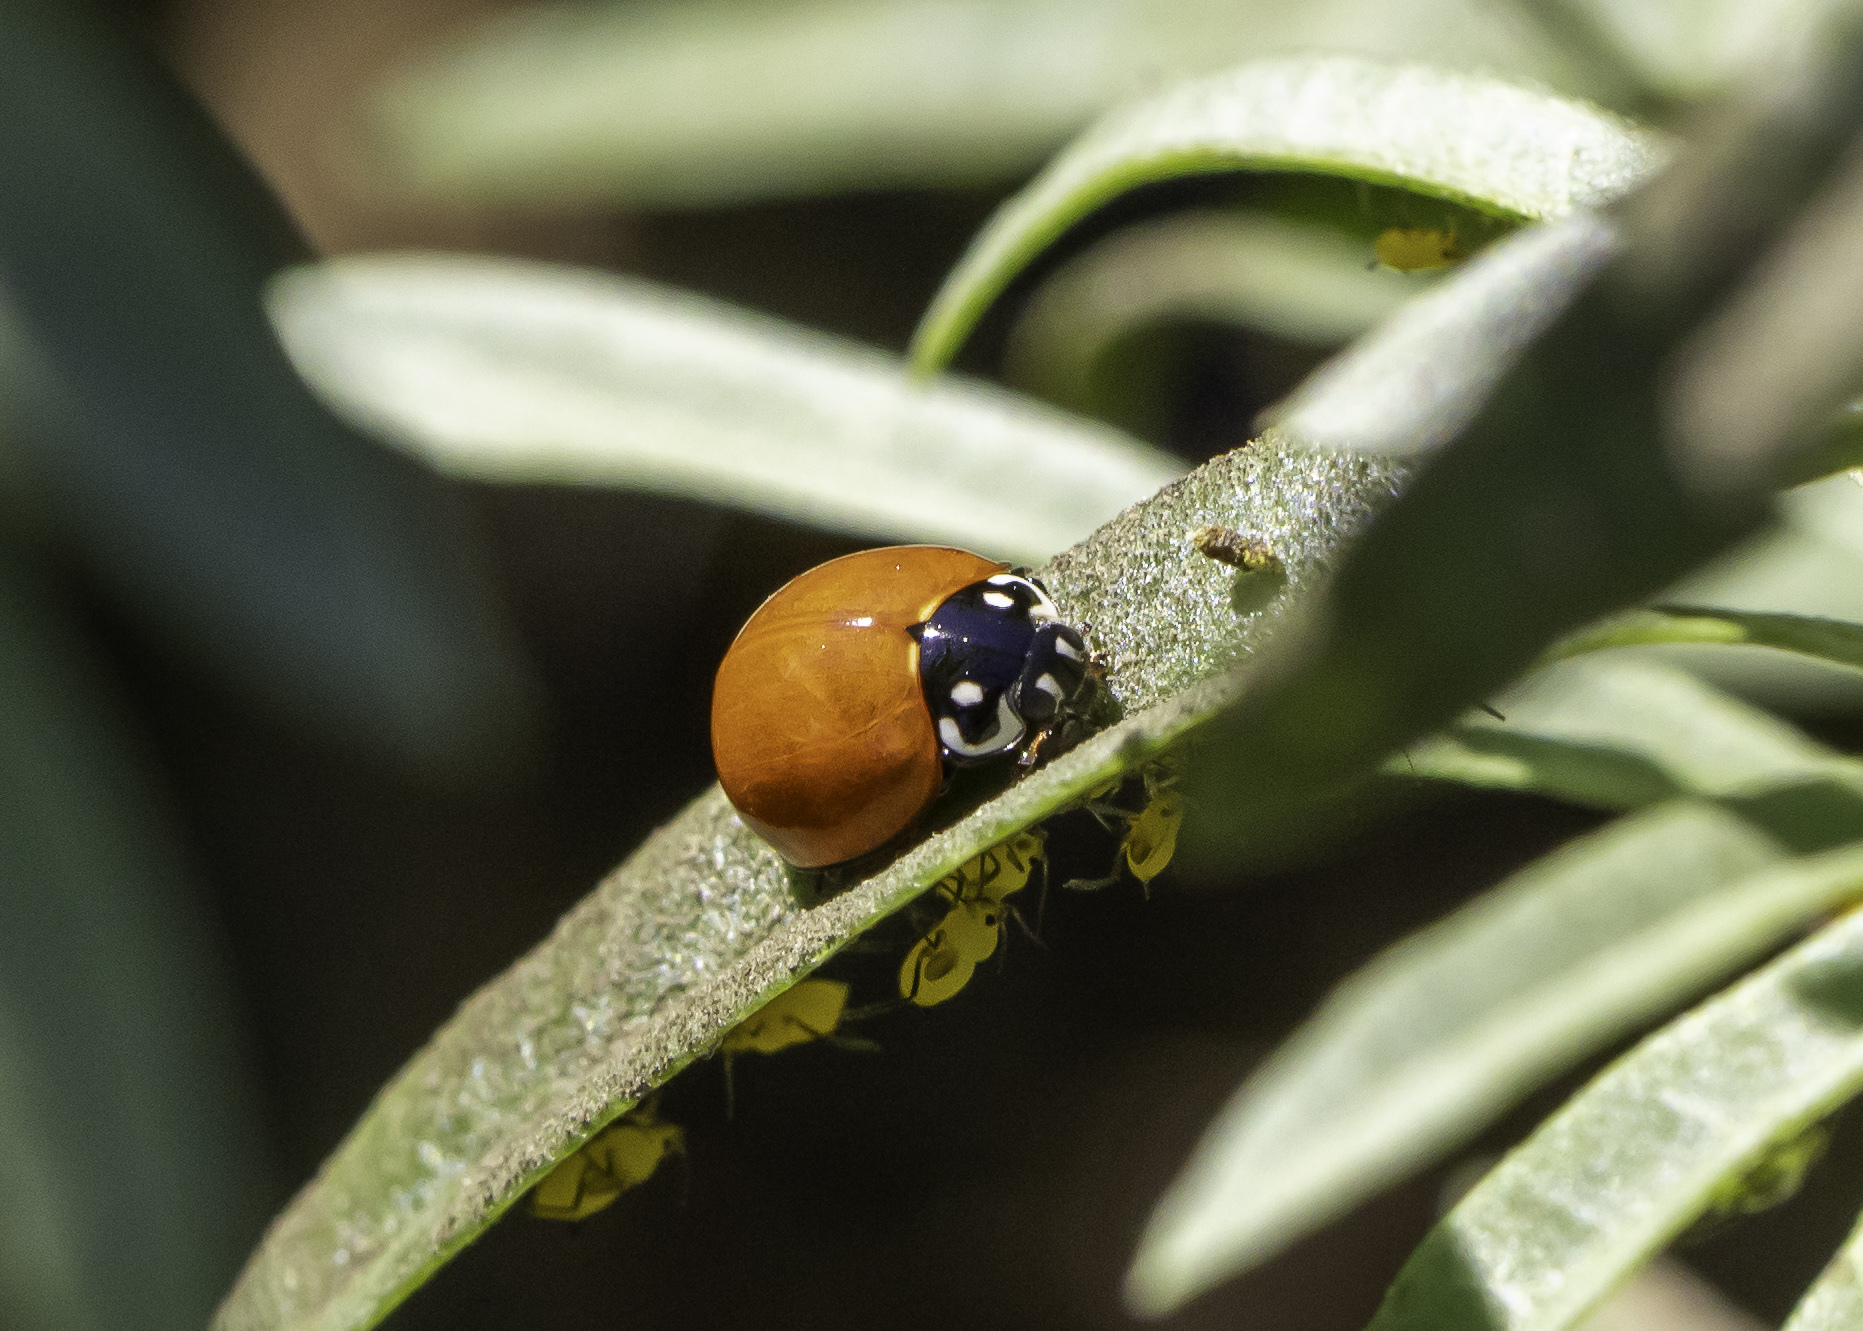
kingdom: Animalia
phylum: Arthropoda
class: Insecta
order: Coleoptera
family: Coccinellidae
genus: Cycloneda
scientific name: Cycloneda sanguinea
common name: Ladybird beetle
